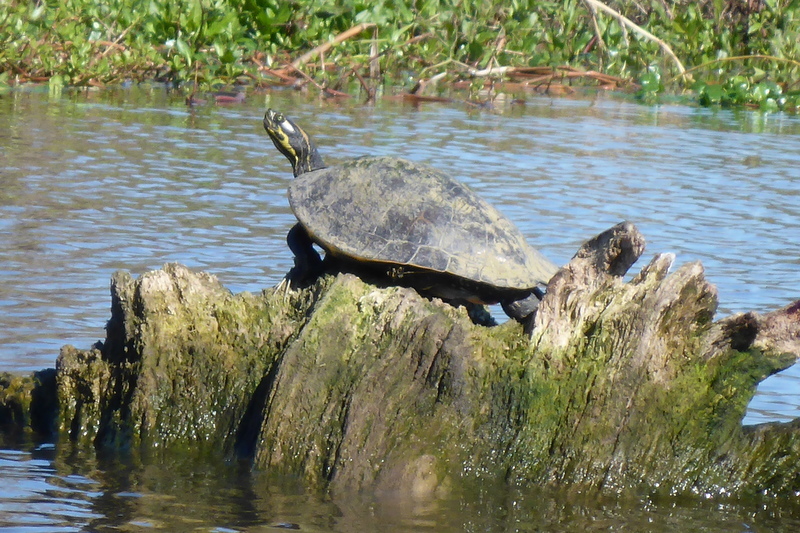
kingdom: Animalia
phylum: Chordata
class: Testudines
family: Emydidae
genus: Pseudemys
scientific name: Pseudemys concinna
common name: Eastern river cooter
